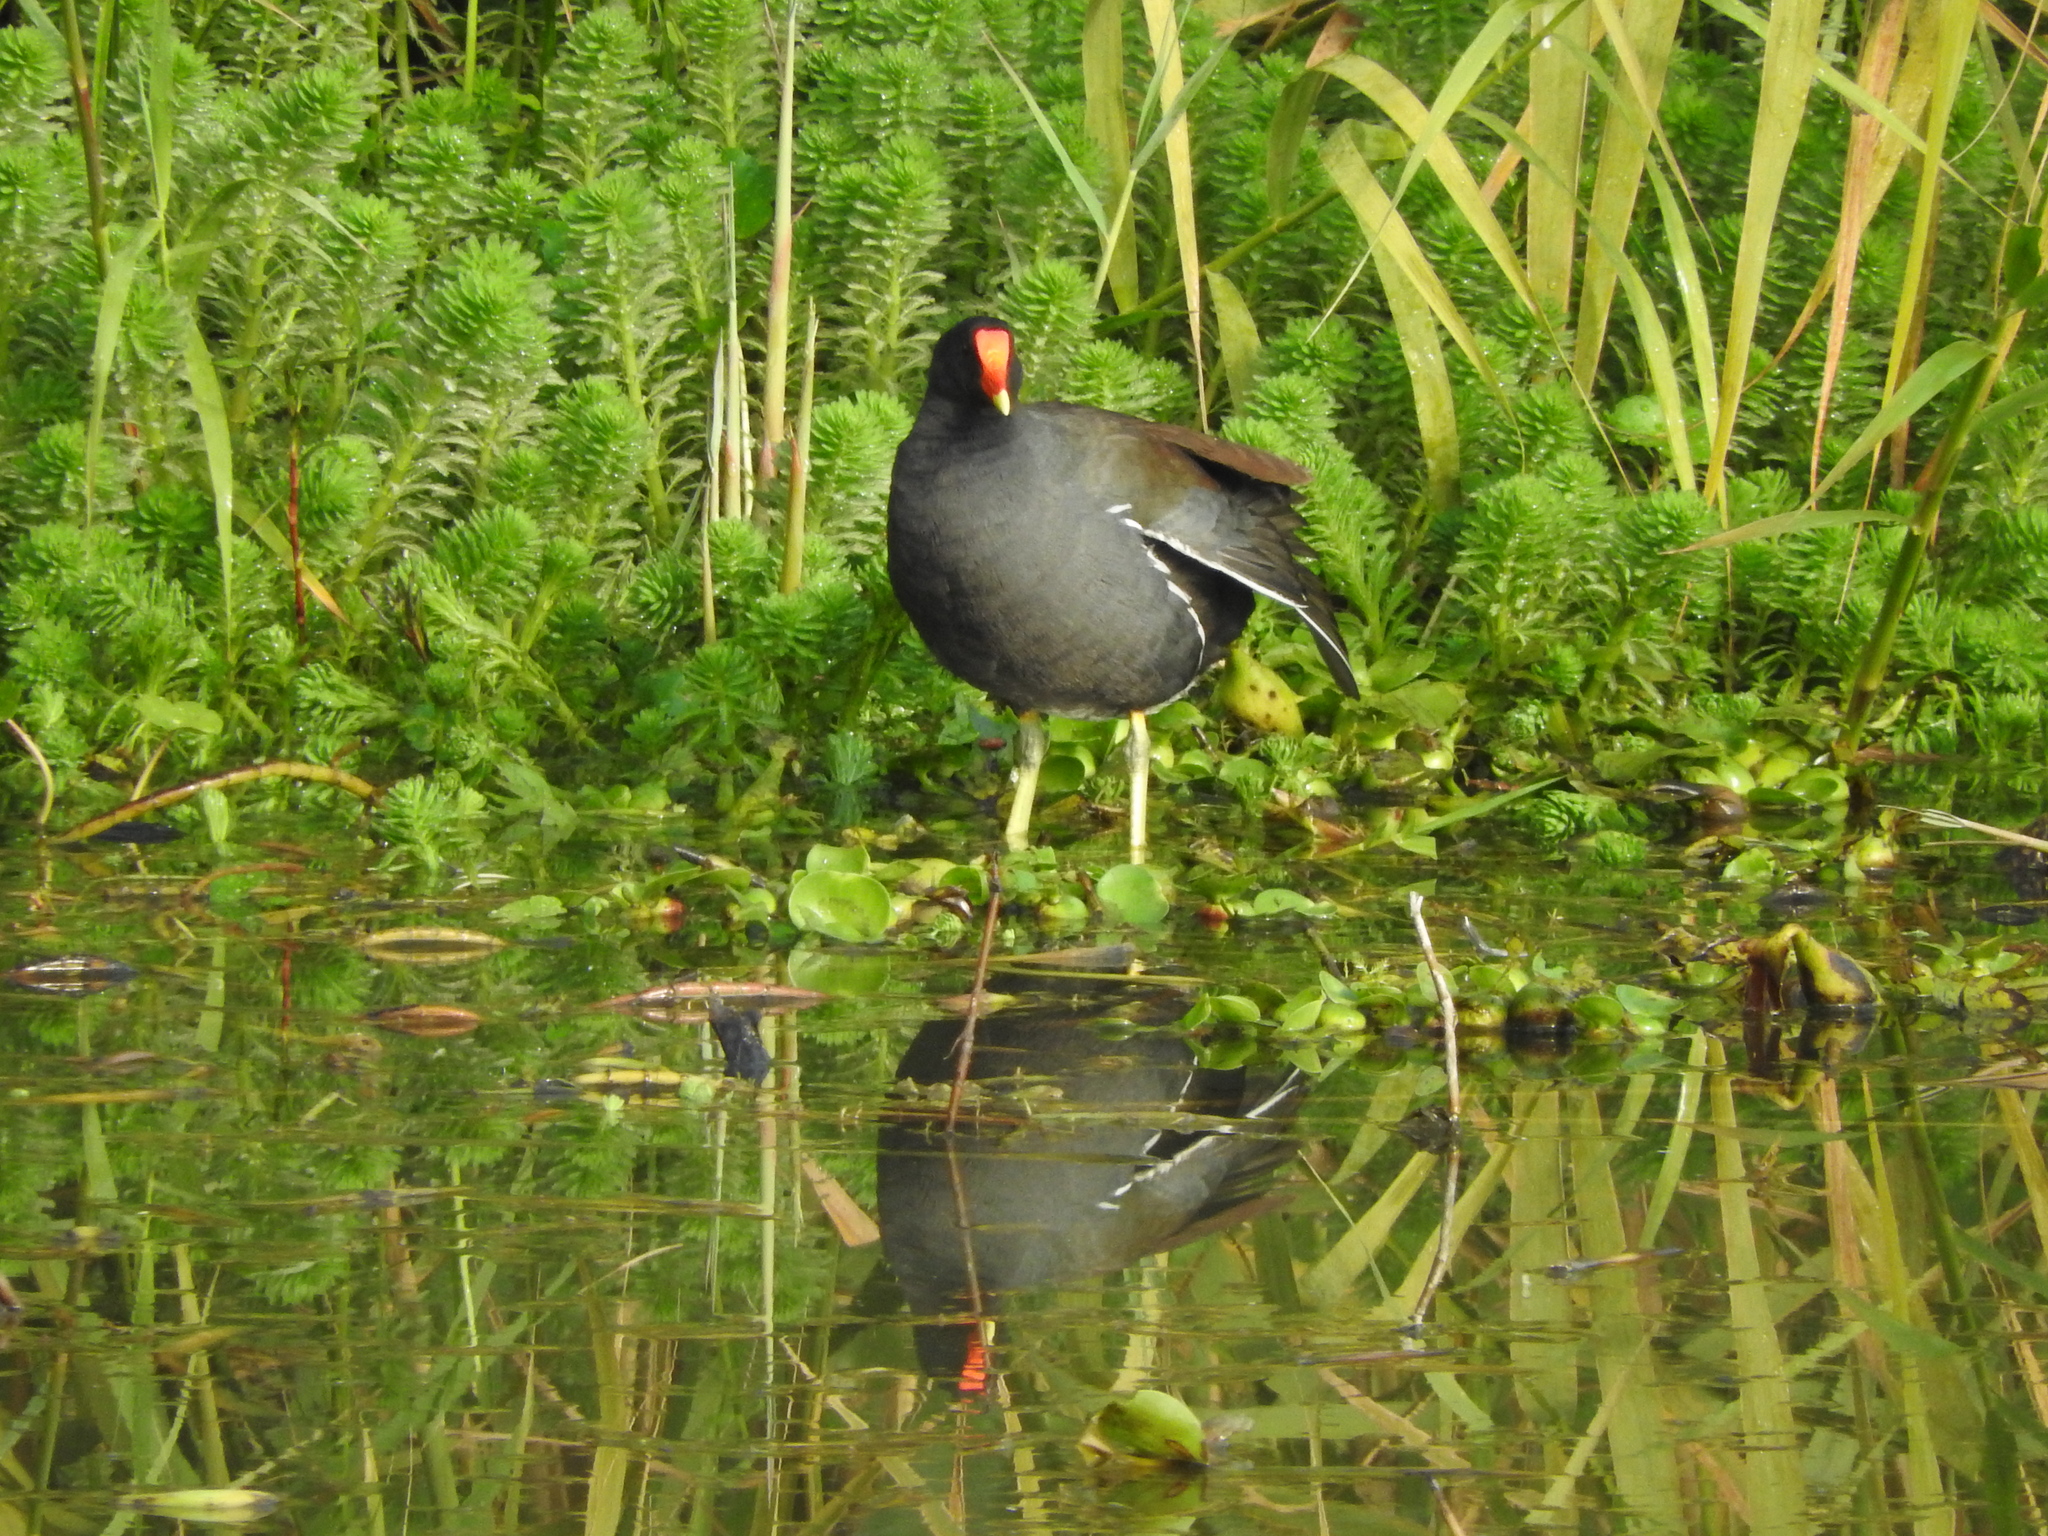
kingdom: Animalia
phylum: Chordata
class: Aves
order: Gruiformes
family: Rallidae
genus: Gallinula
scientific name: Gallinula chloropus
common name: Common moorhen
